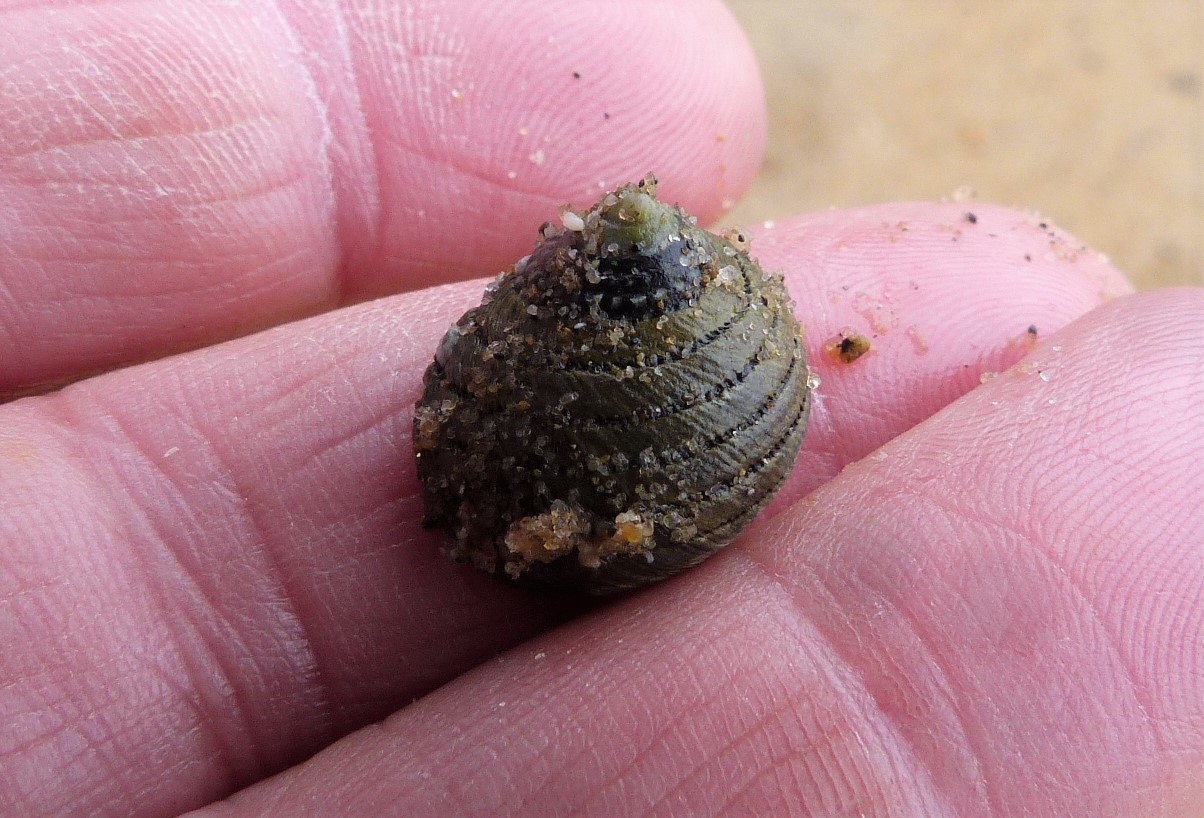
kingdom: Animalia
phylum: Mollusca
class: Gastropoda
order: Trochida
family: Trochidae
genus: Diloma
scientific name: Diloma aethiops
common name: Scorched monodont
